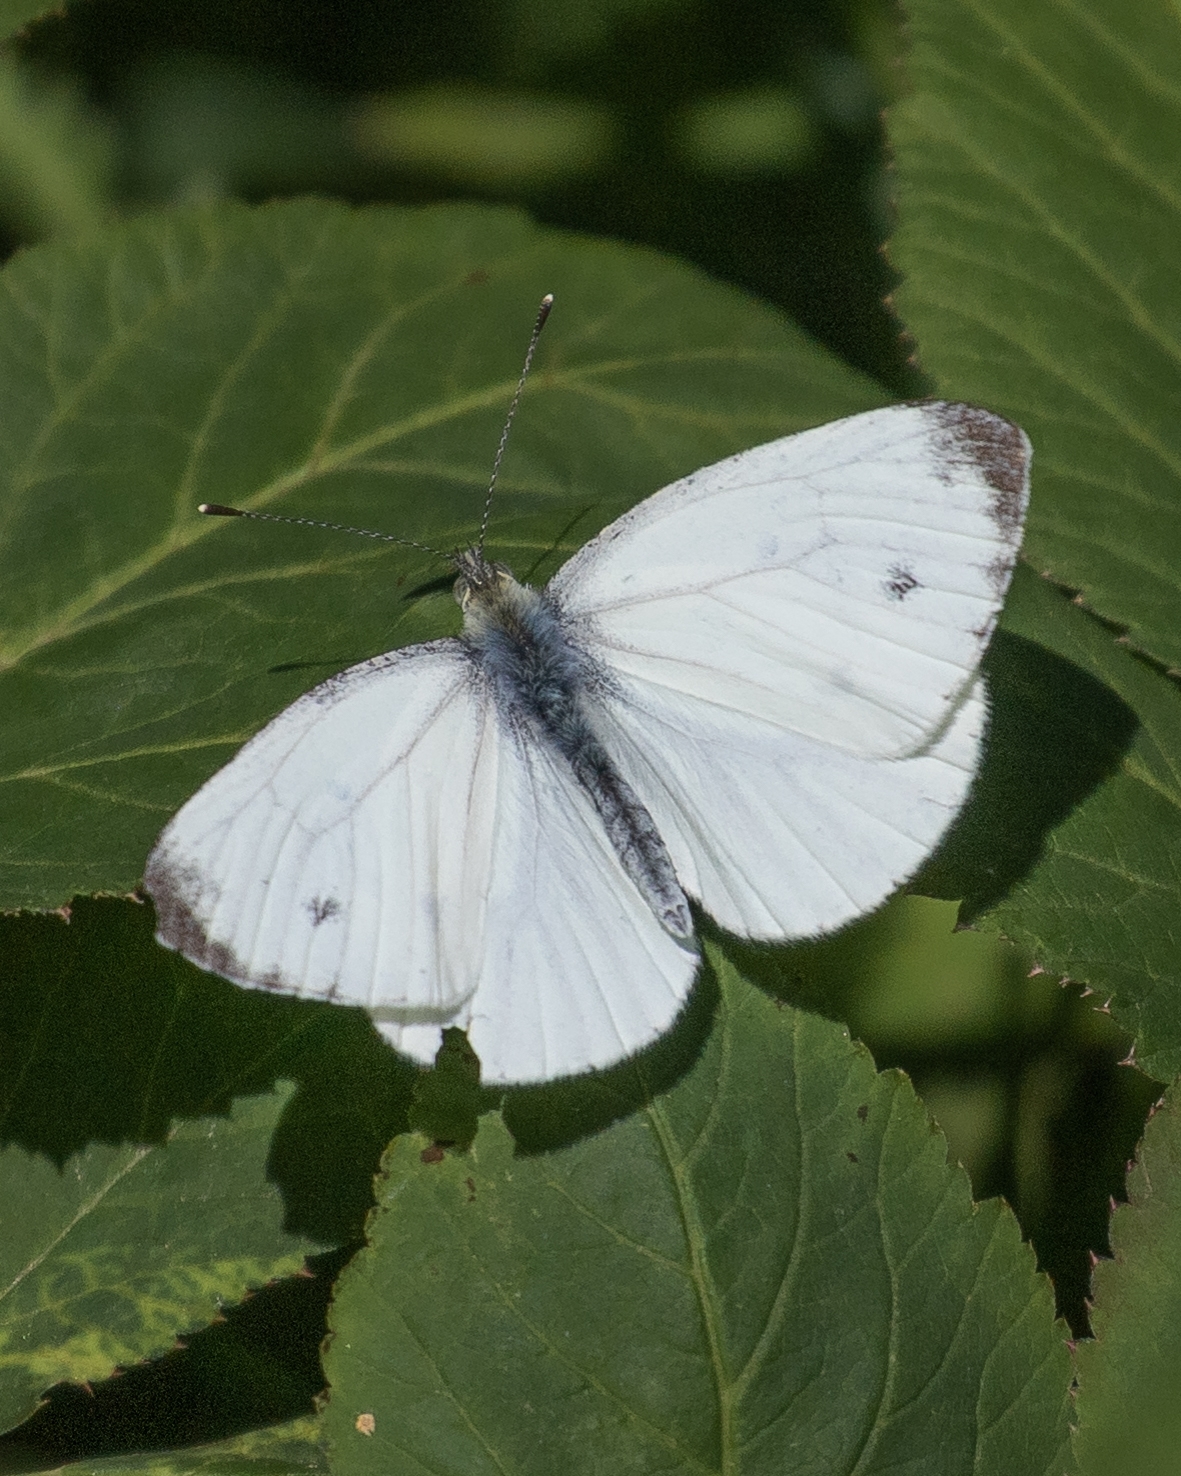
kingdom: Animalia
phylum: Arthropoda
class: Insecta
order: Lepidoptera
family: Pieridae
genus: Pieris
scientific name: Pieris napi
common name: Green-veined white
